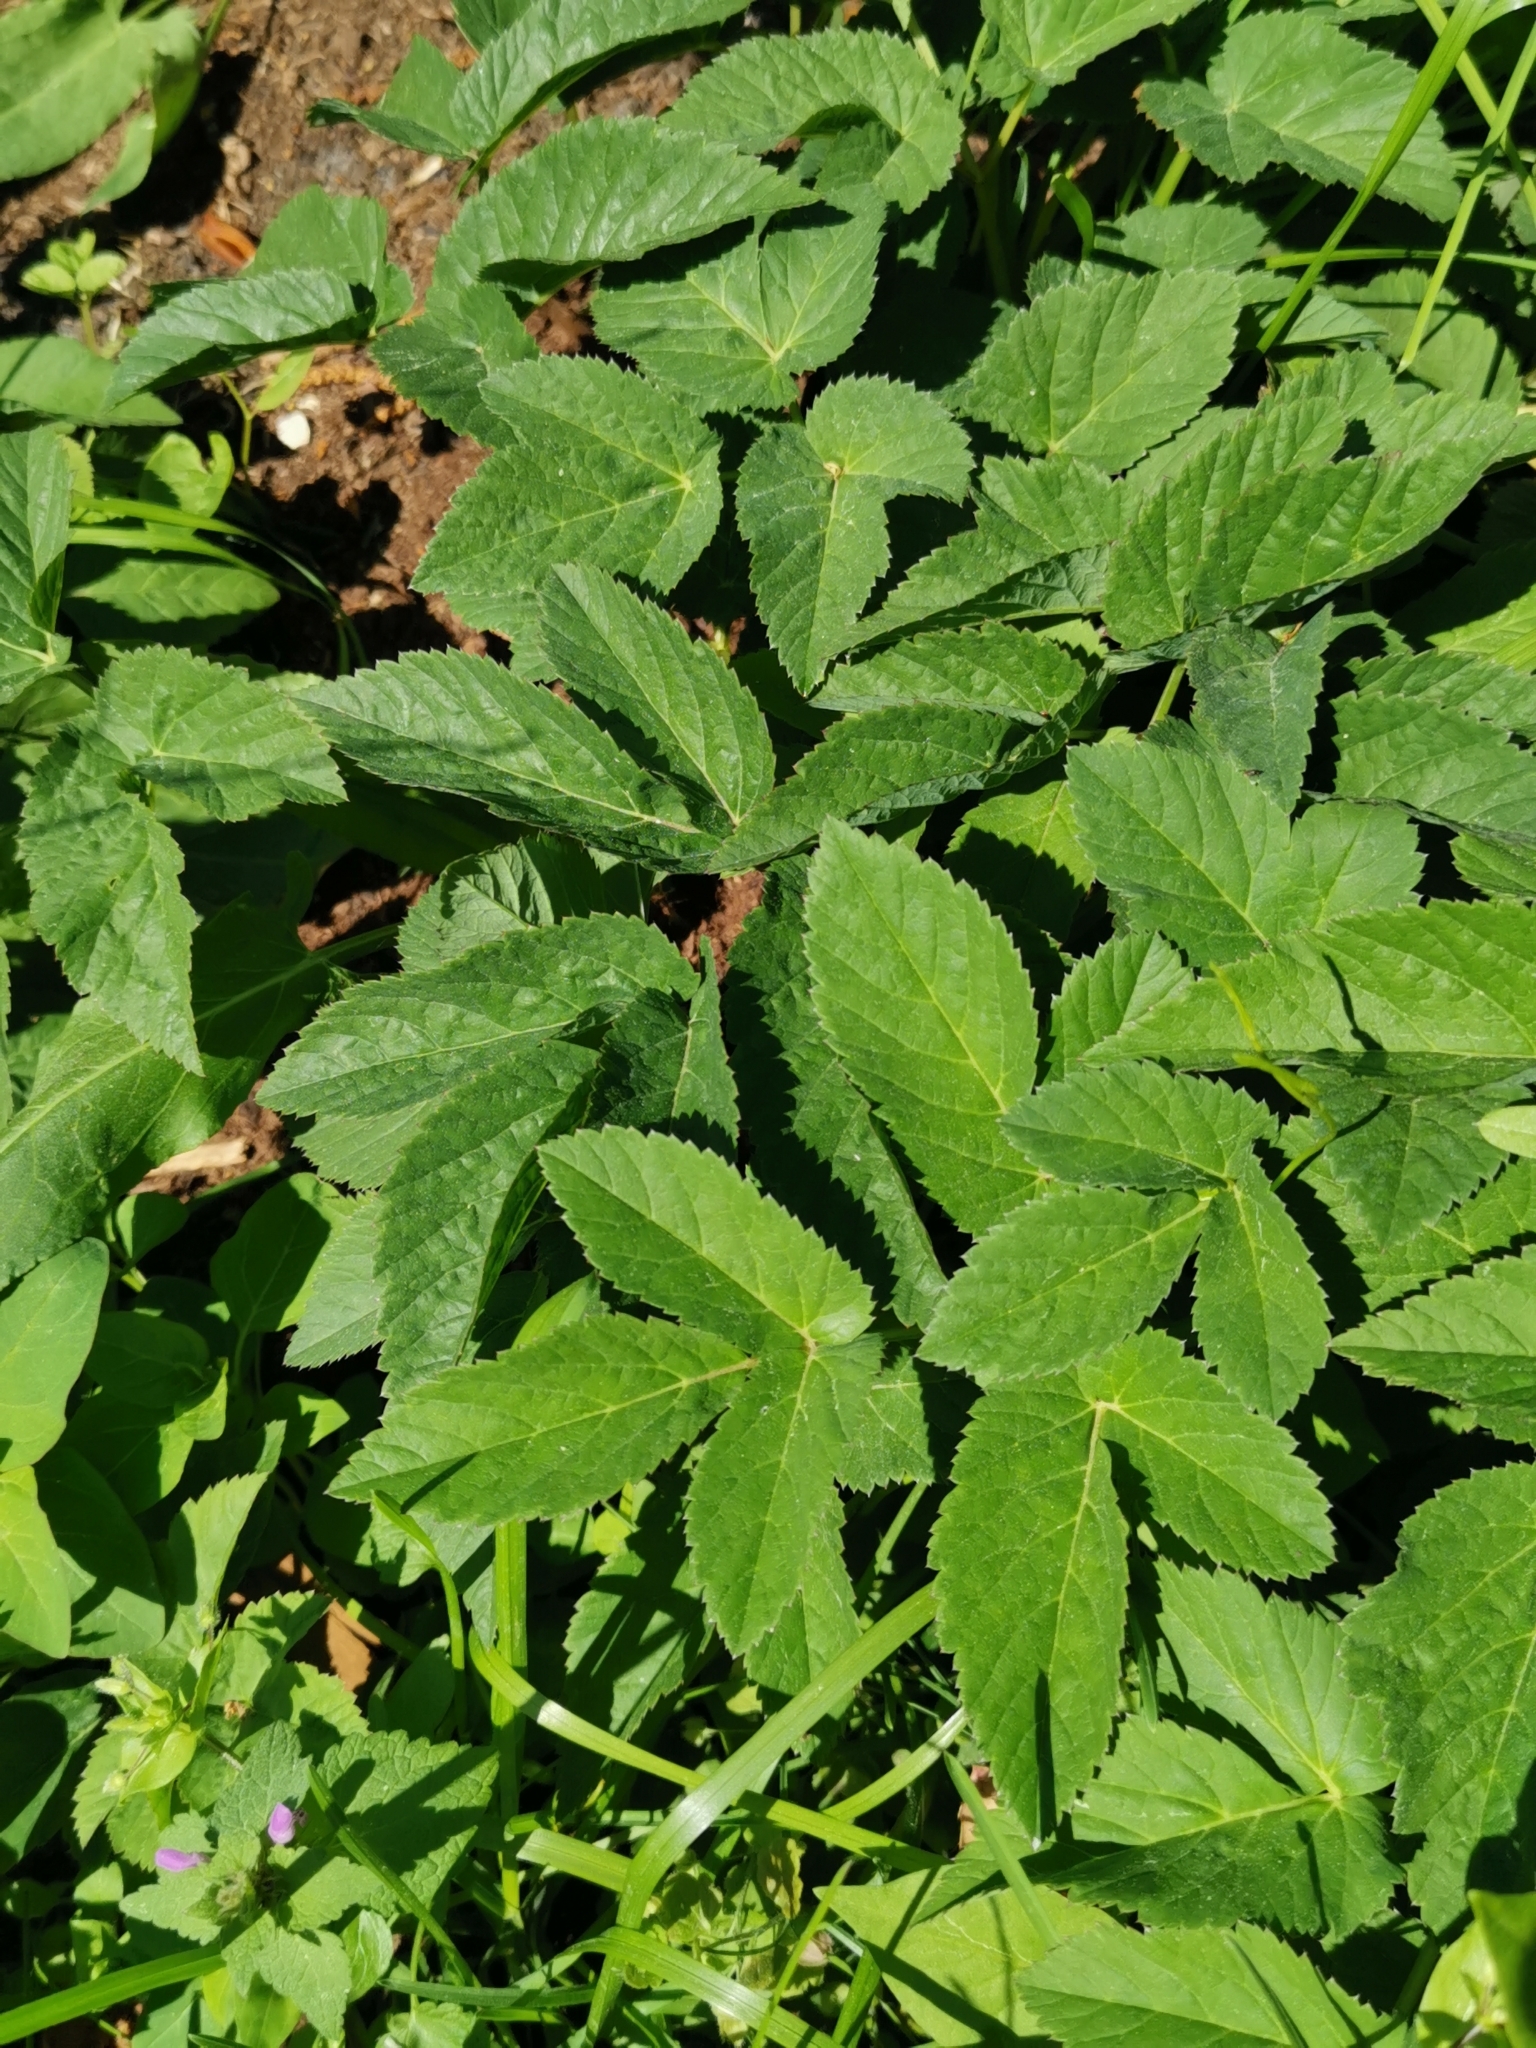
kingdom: Plantae
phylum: Tracheophyta
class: Magnoliopsida
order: Apiales
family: Apiaceae
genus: Aegopodium
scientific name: Aegopodium podagraria
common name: Ground-elder
